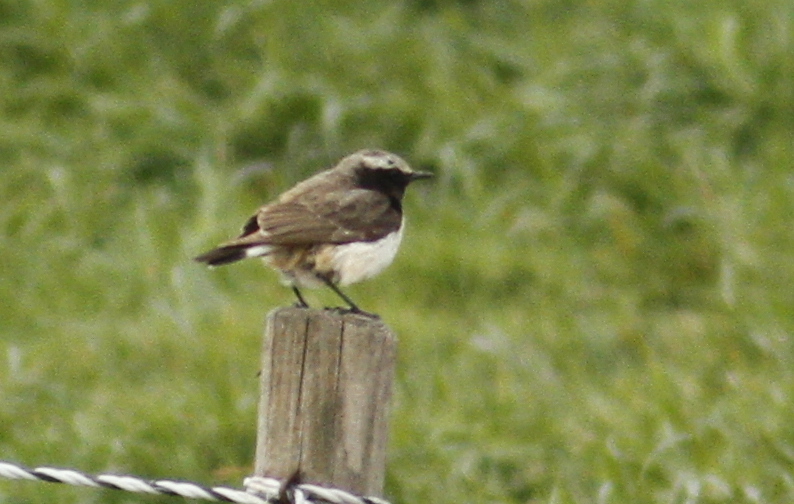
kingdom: Animalia
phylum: Chordata
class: Aves
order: Passeriformes
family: Muscicapidae
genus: Oenanthe
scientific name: Oenanthe xanthoprymna
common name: Kurdish wheatear
